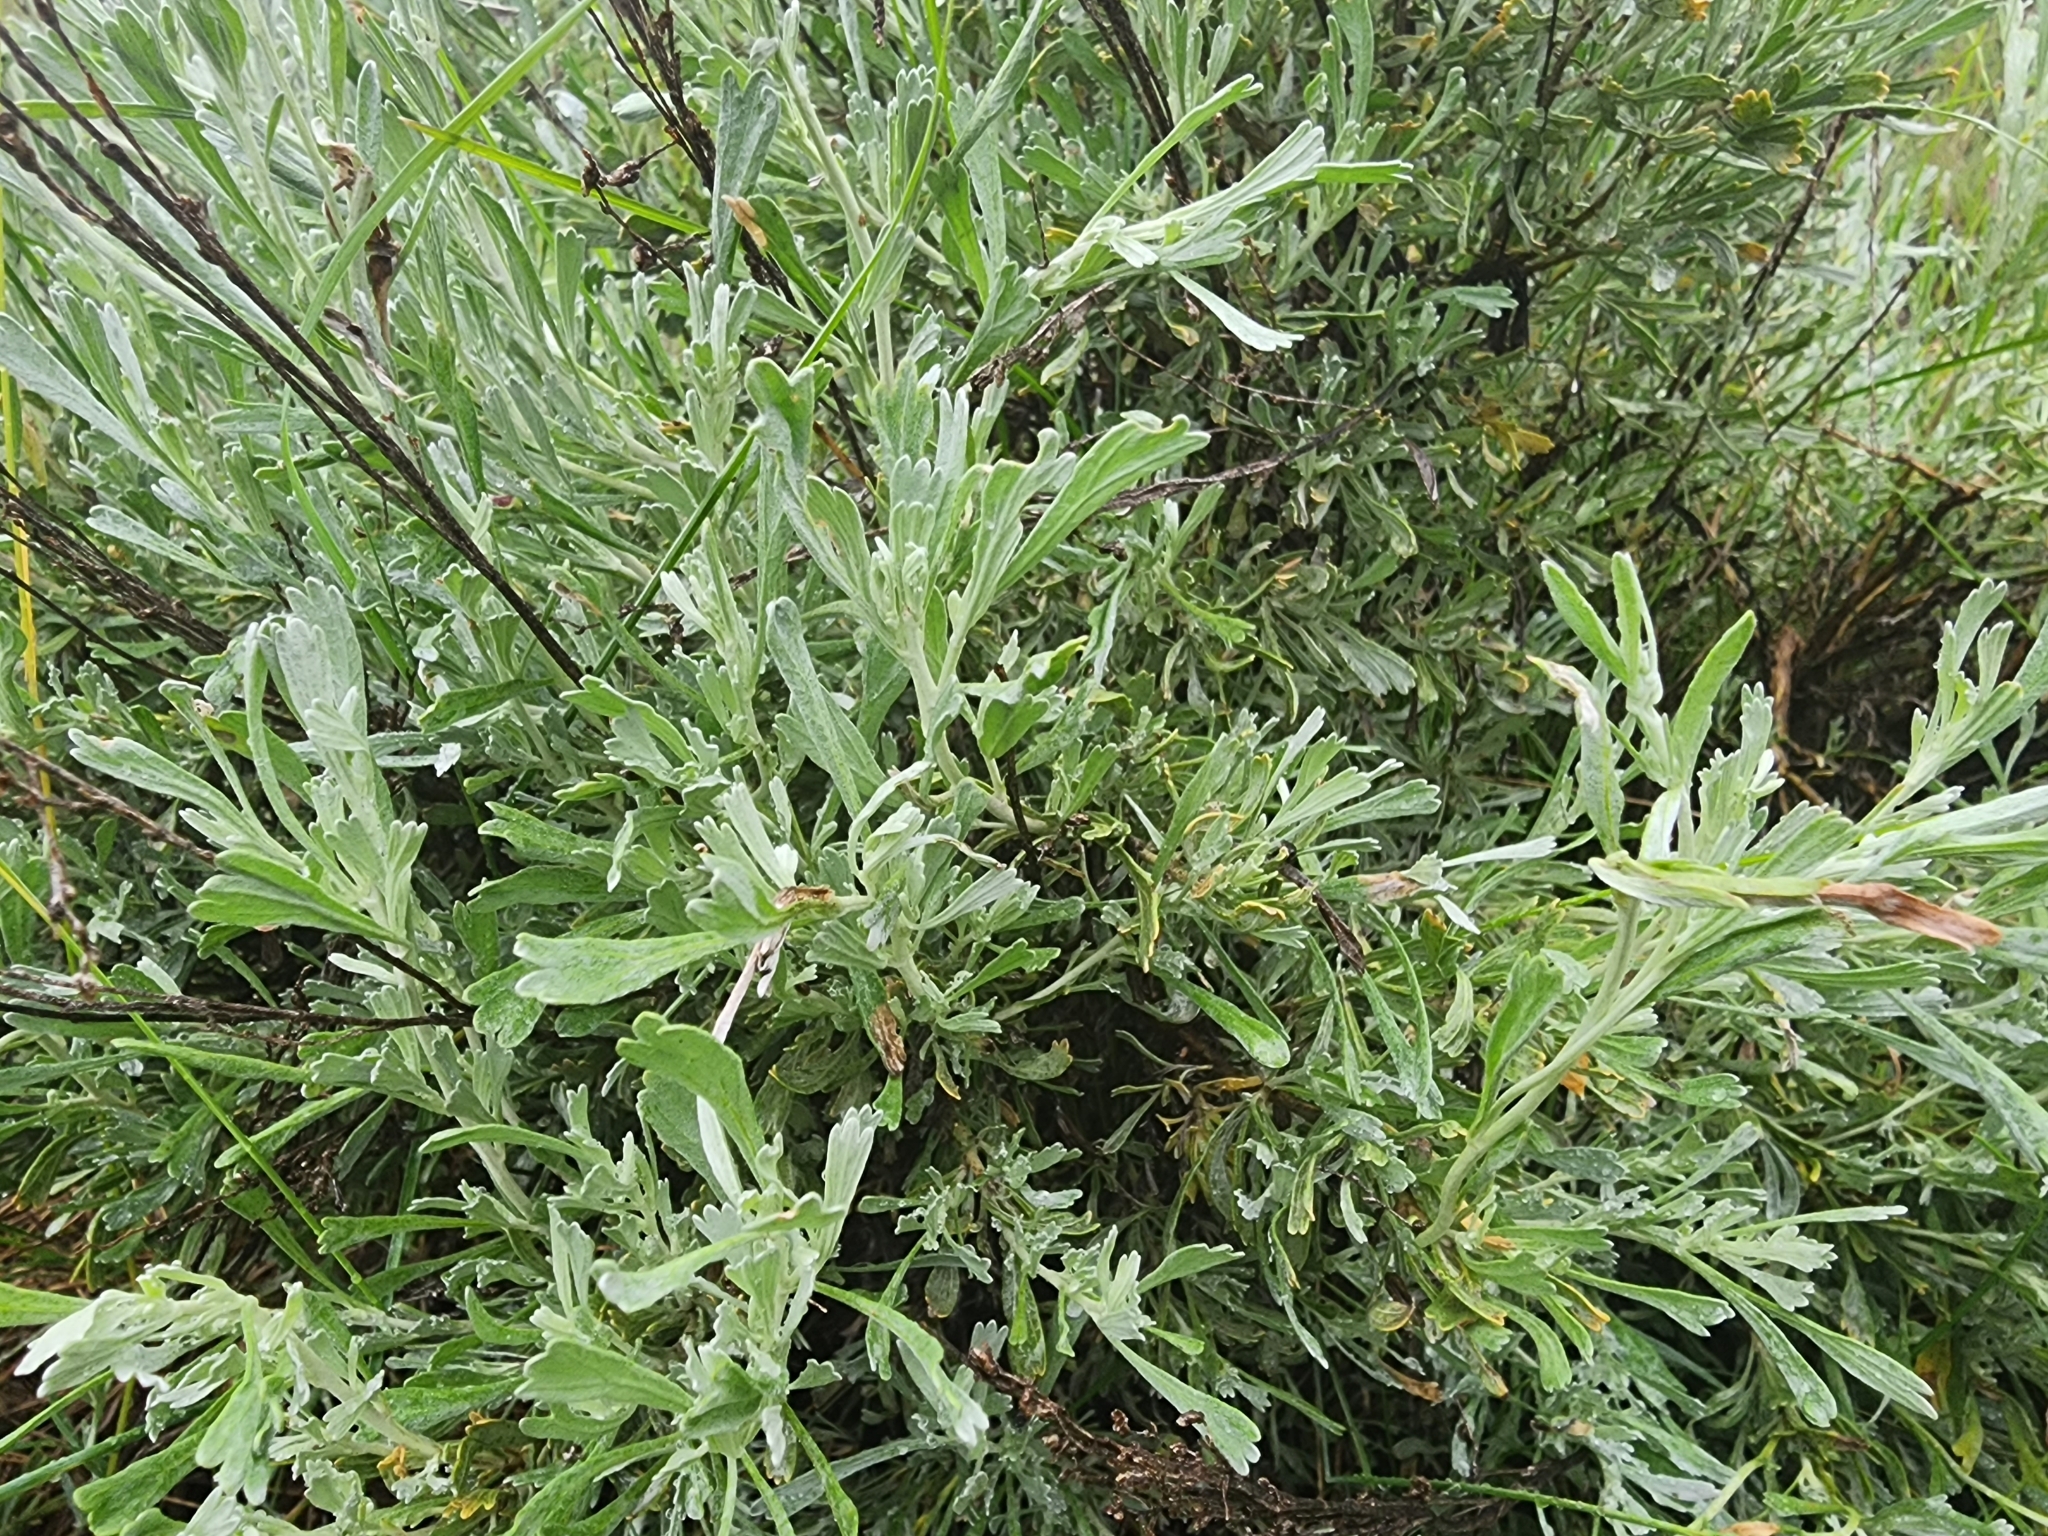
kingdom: Plantae
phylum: Tracheophyta
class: Magnoliopsida
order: Asterales
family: Asteraceae
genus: Artemisia
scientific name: Artemisia tridentata
